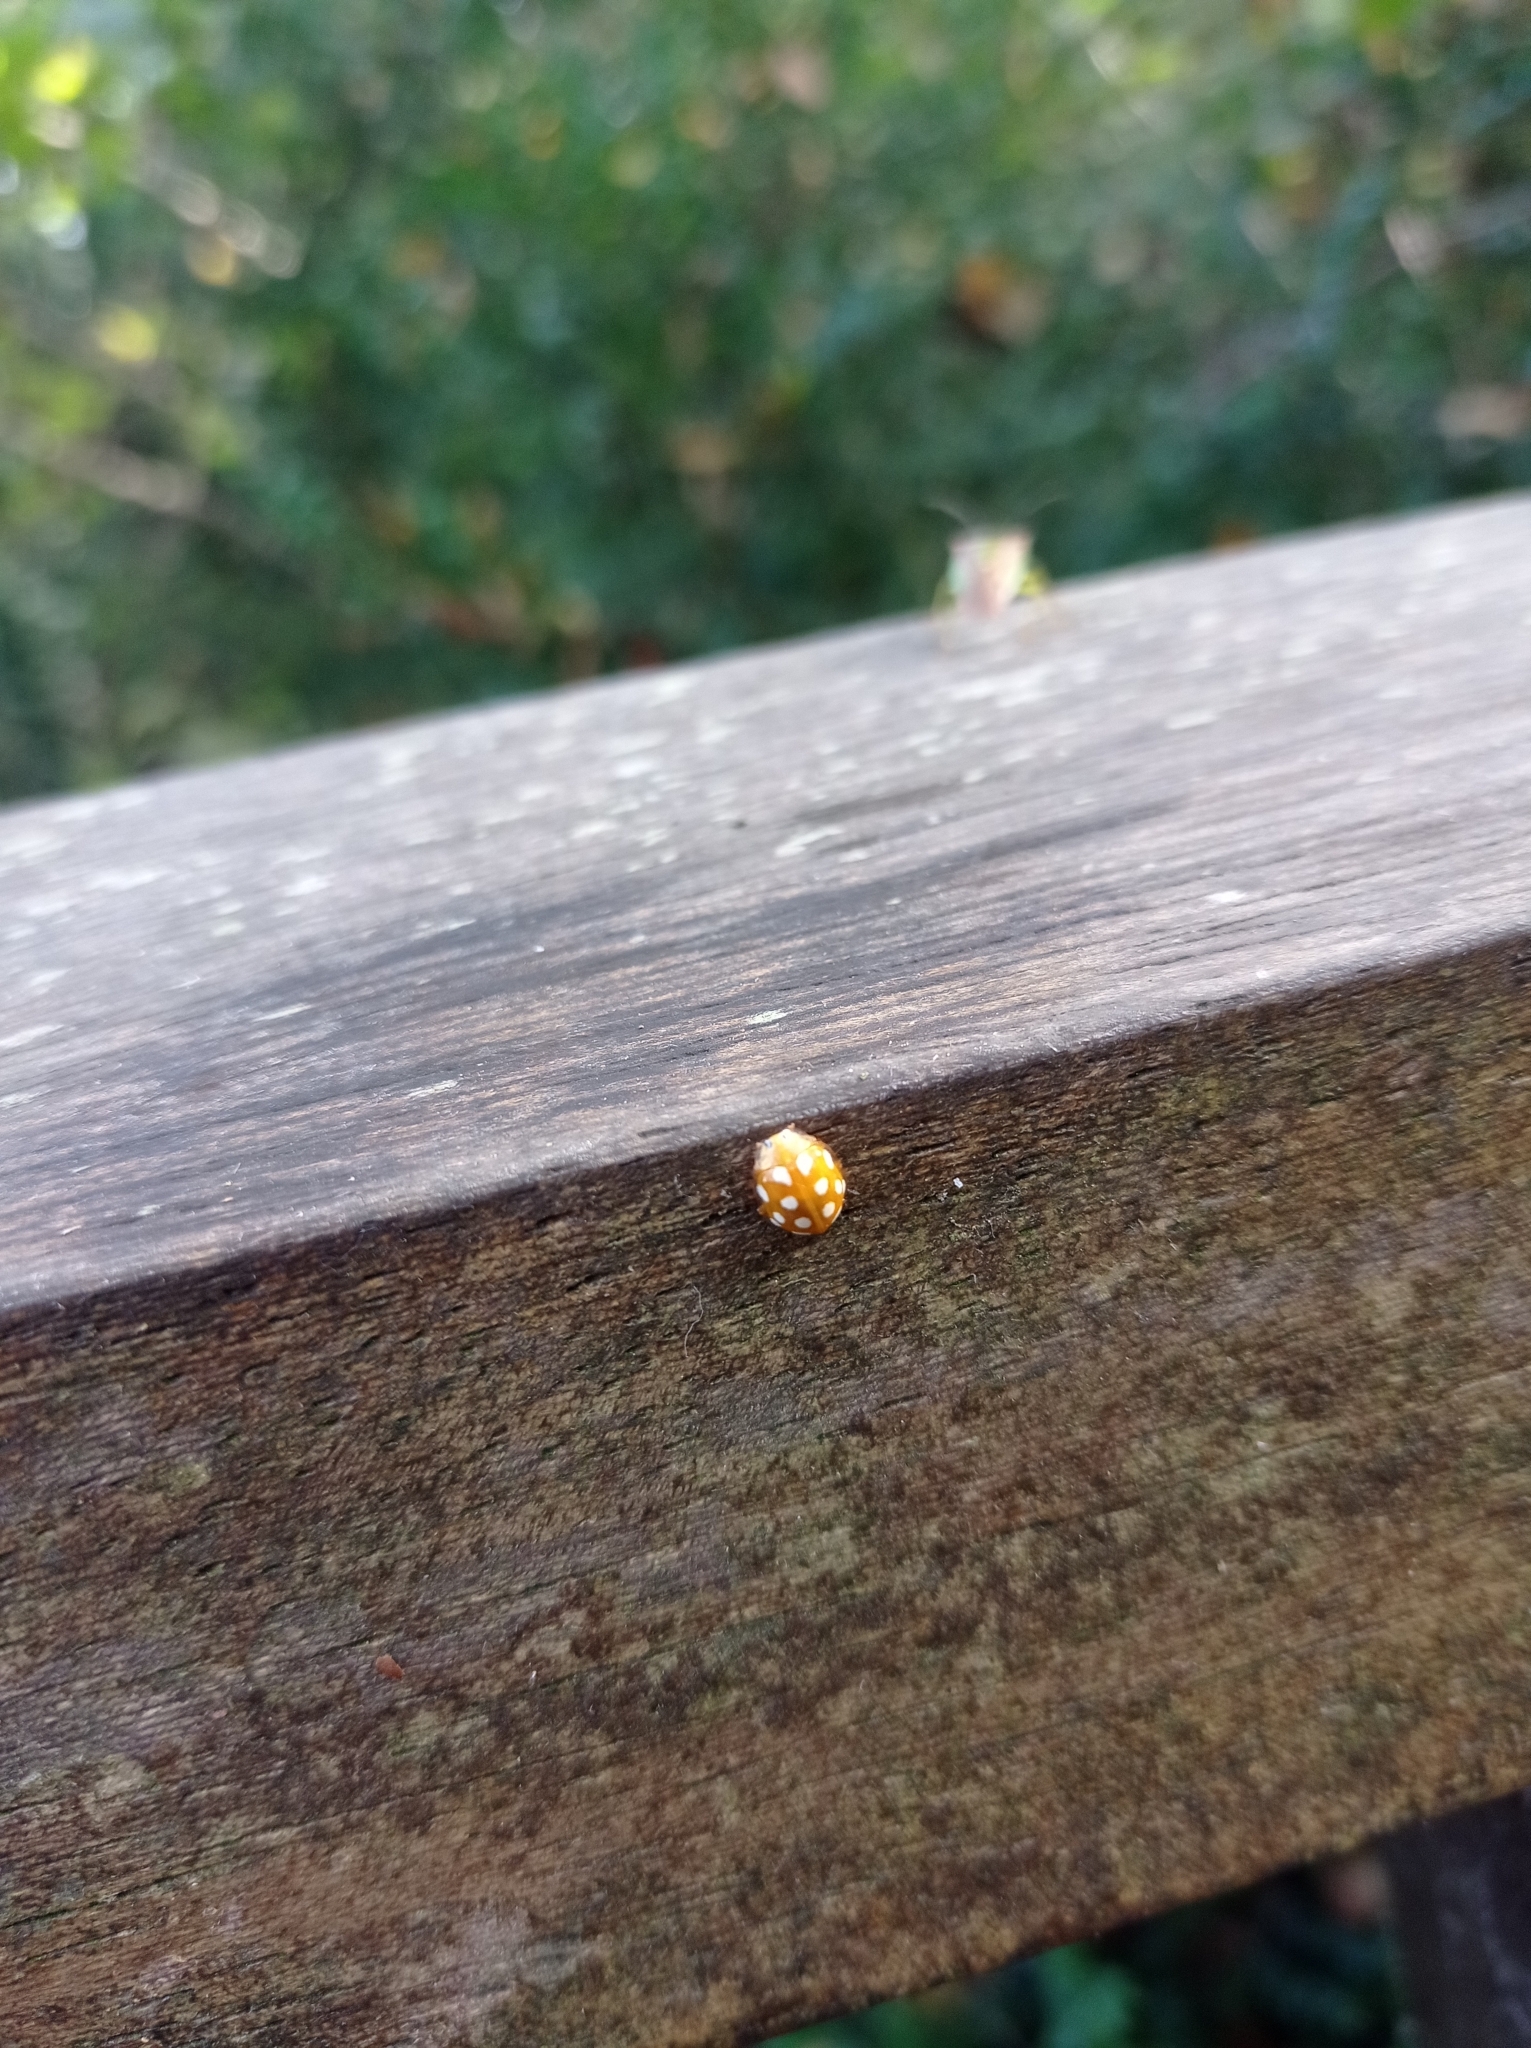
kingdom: Animalia
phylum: Arthropoda
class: Insecta
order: Coleoptera
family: Coccinellidae
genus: Halyzia
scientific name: Halyzia sedecimguttata
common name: Orange ladybird
